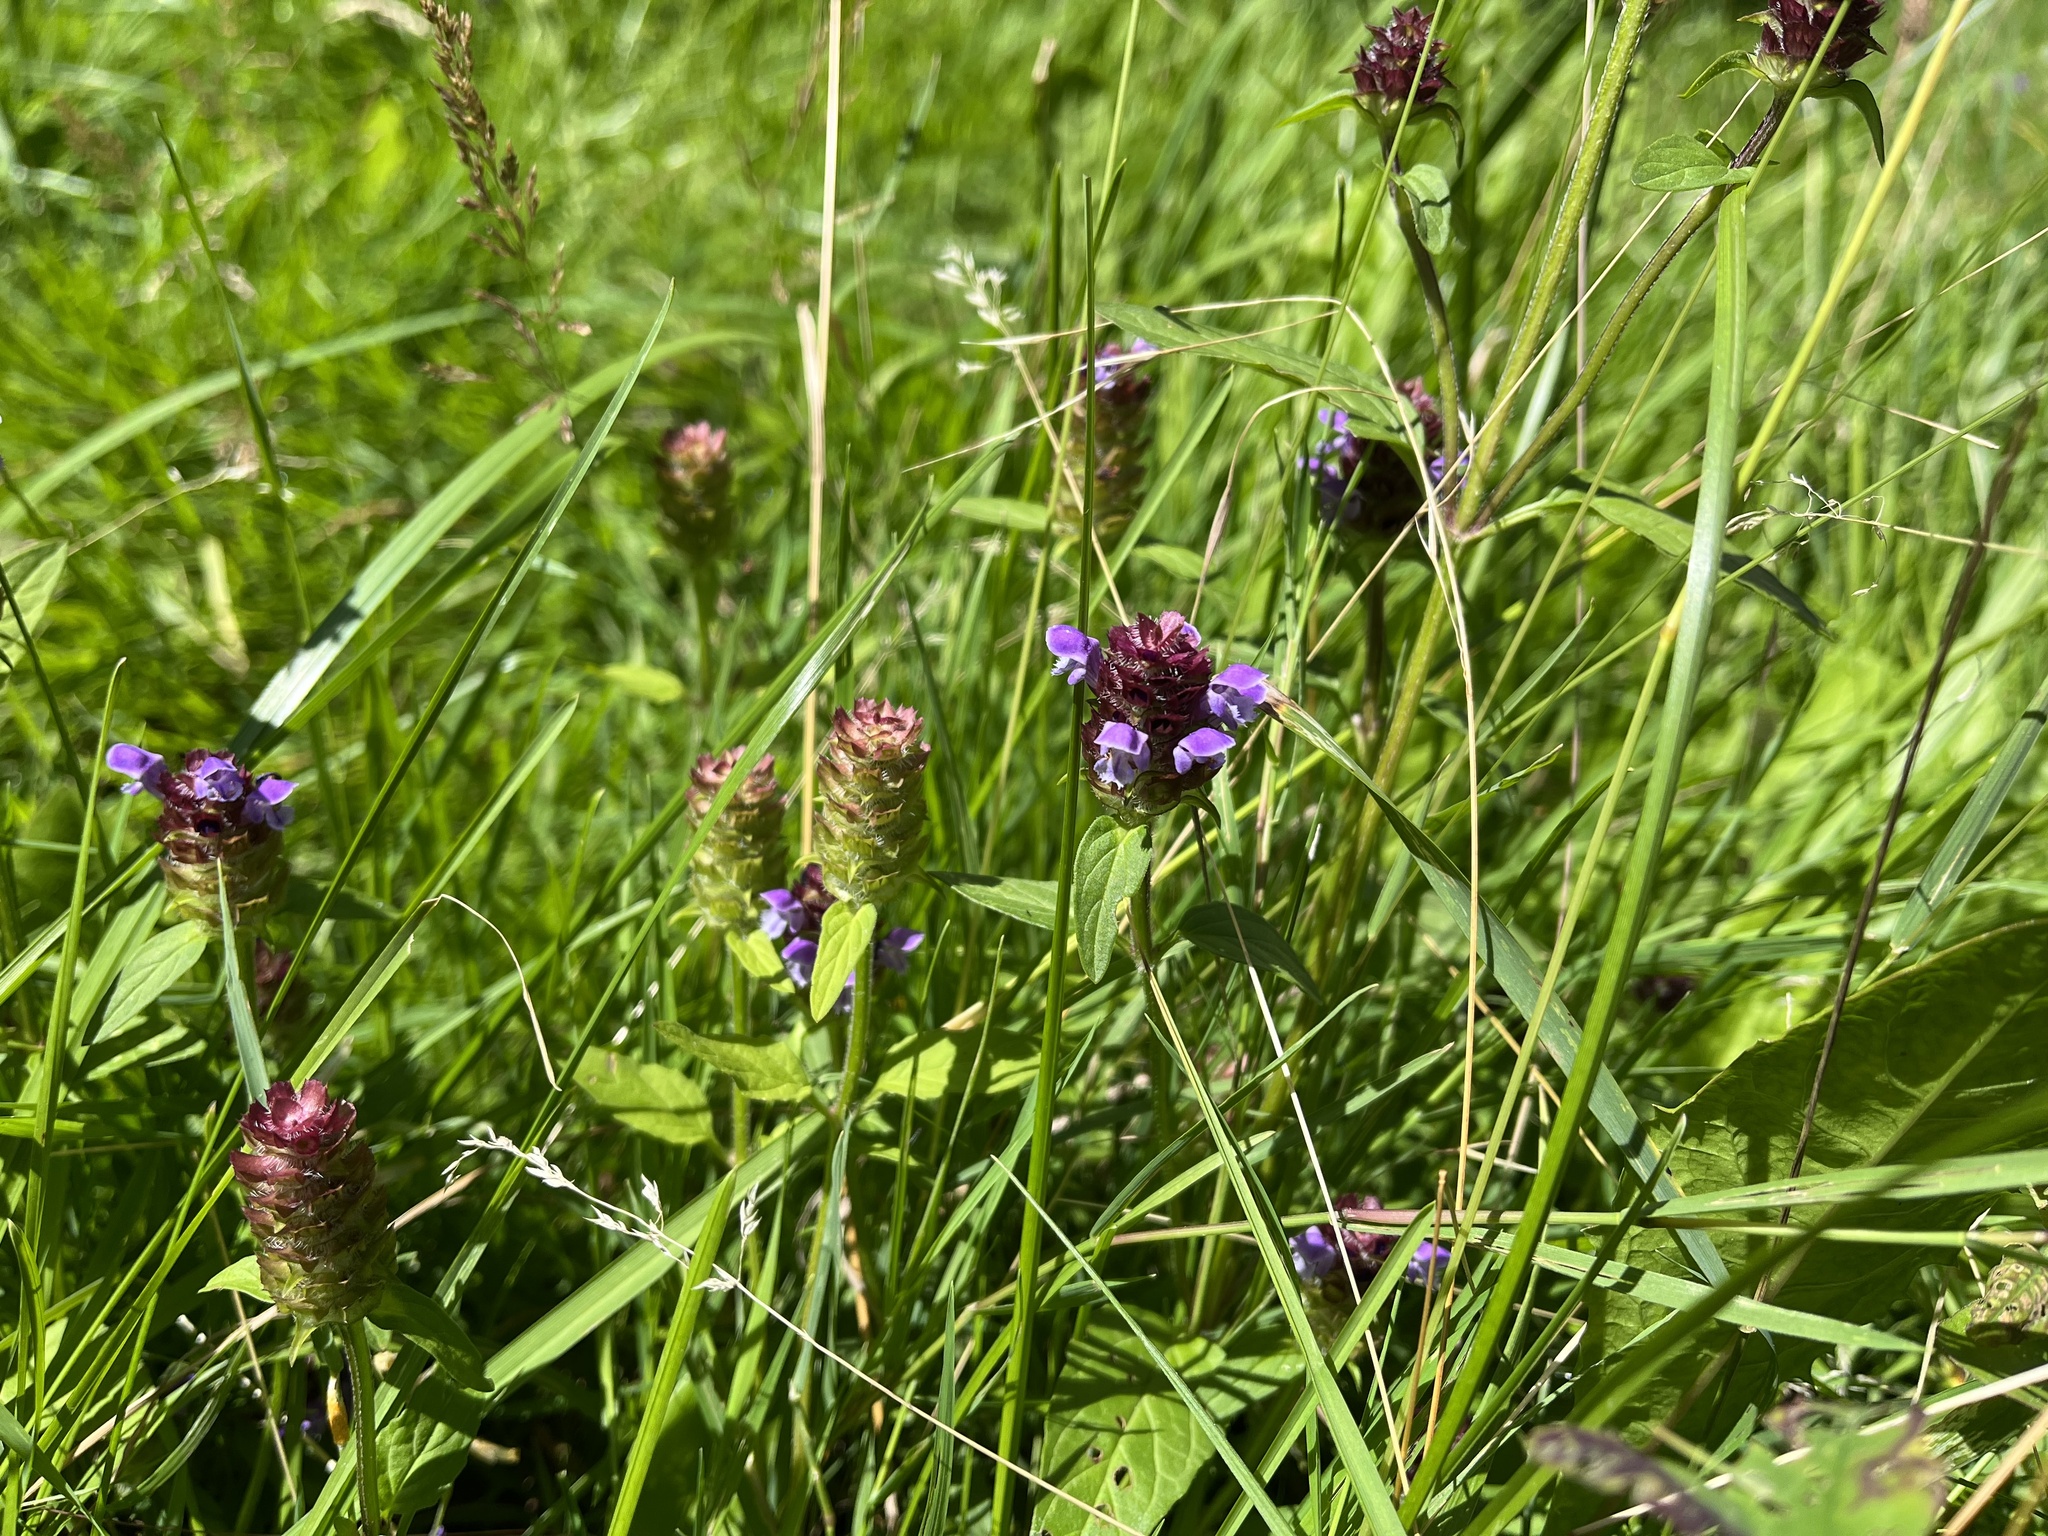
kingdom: Plantae
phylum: Tracheophyta
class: Magnoliopsida
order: Lamiales
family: Lamiaceae
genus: Prunella
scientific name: Prunella vulgaris
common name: Heal-all
